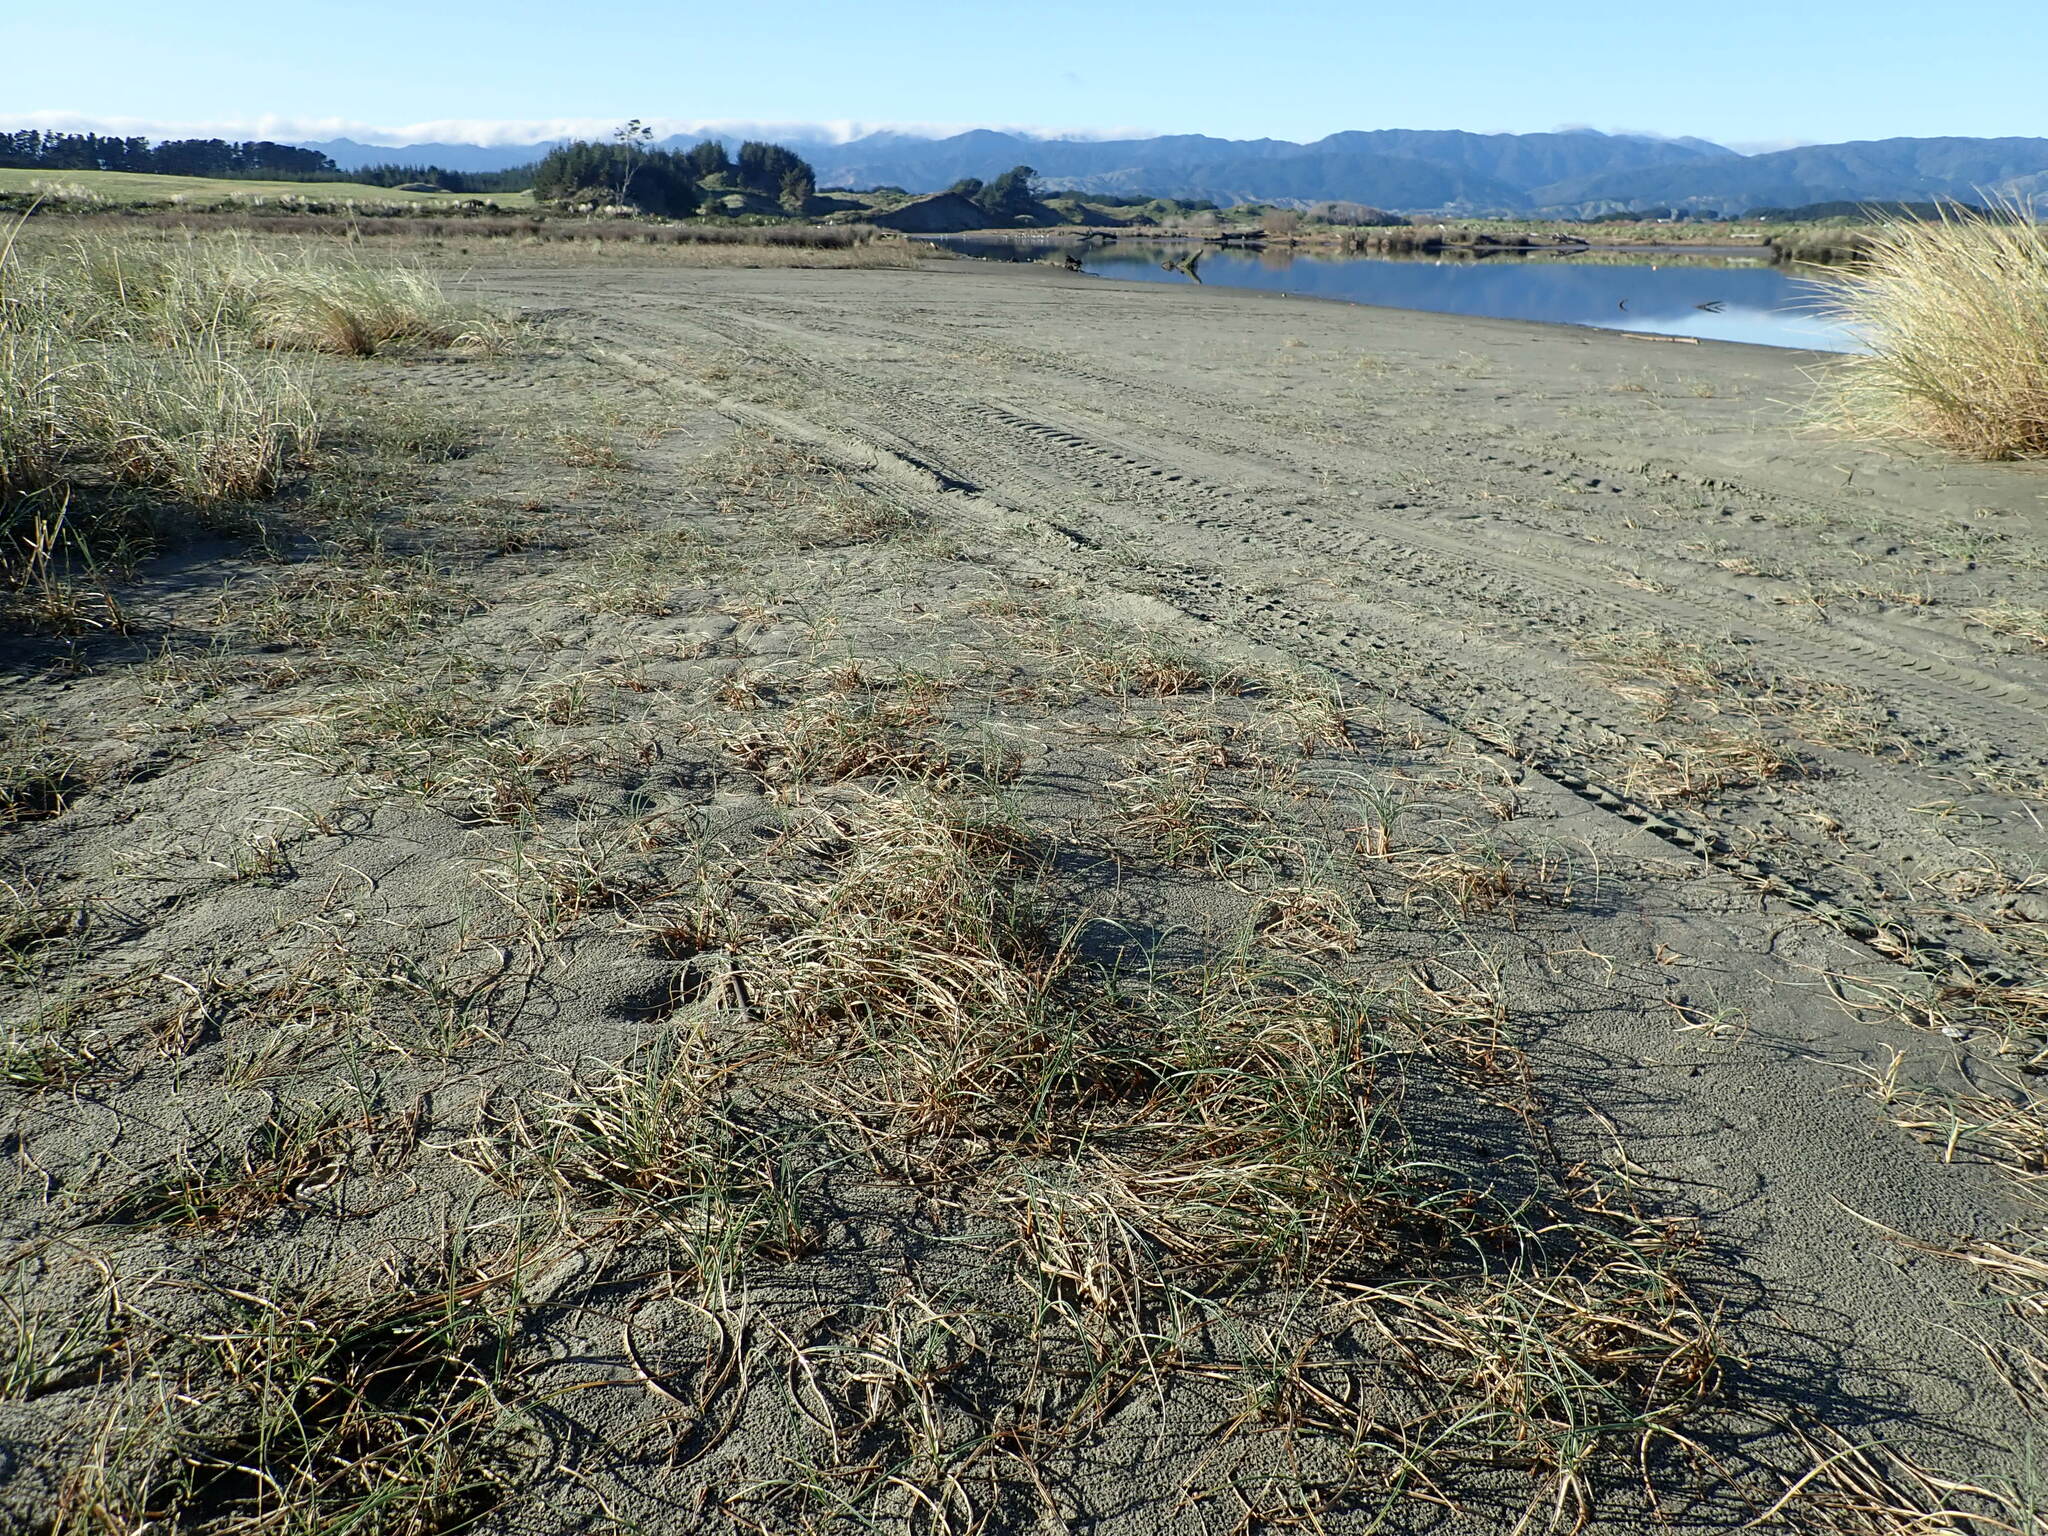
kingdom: Plantae
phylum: Tracheophyta
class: Liliopsida
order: Poales
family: Cyperaceae
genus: Carex
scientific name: Carex pumila
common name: Dwarf sedge
